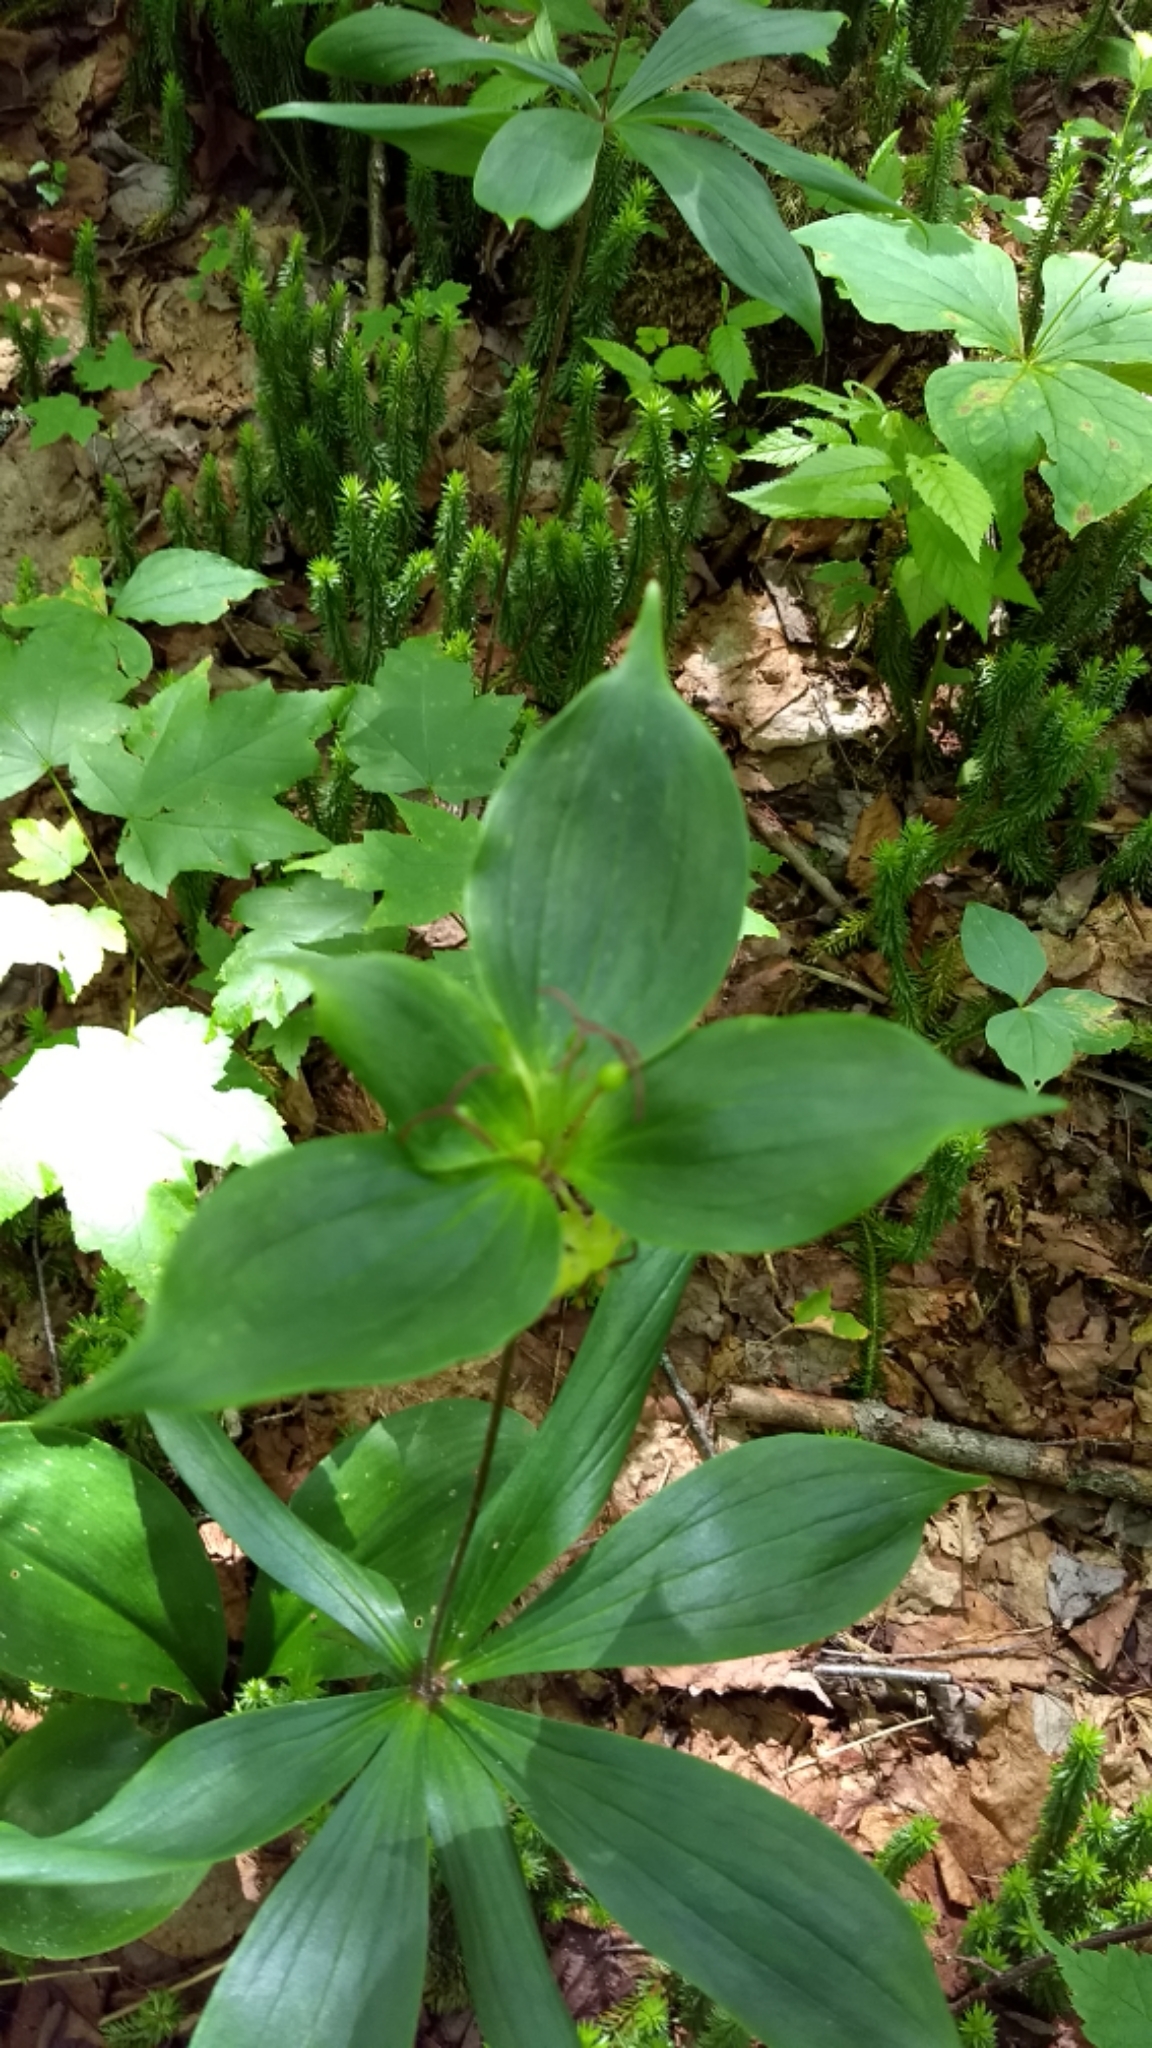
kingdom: Plantae
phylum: Tracheophyta
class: Liliopsida
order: Liliales
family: Liliaceae
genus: Medeola
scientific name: Medeola virginiana
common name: Indian cucumber-root
